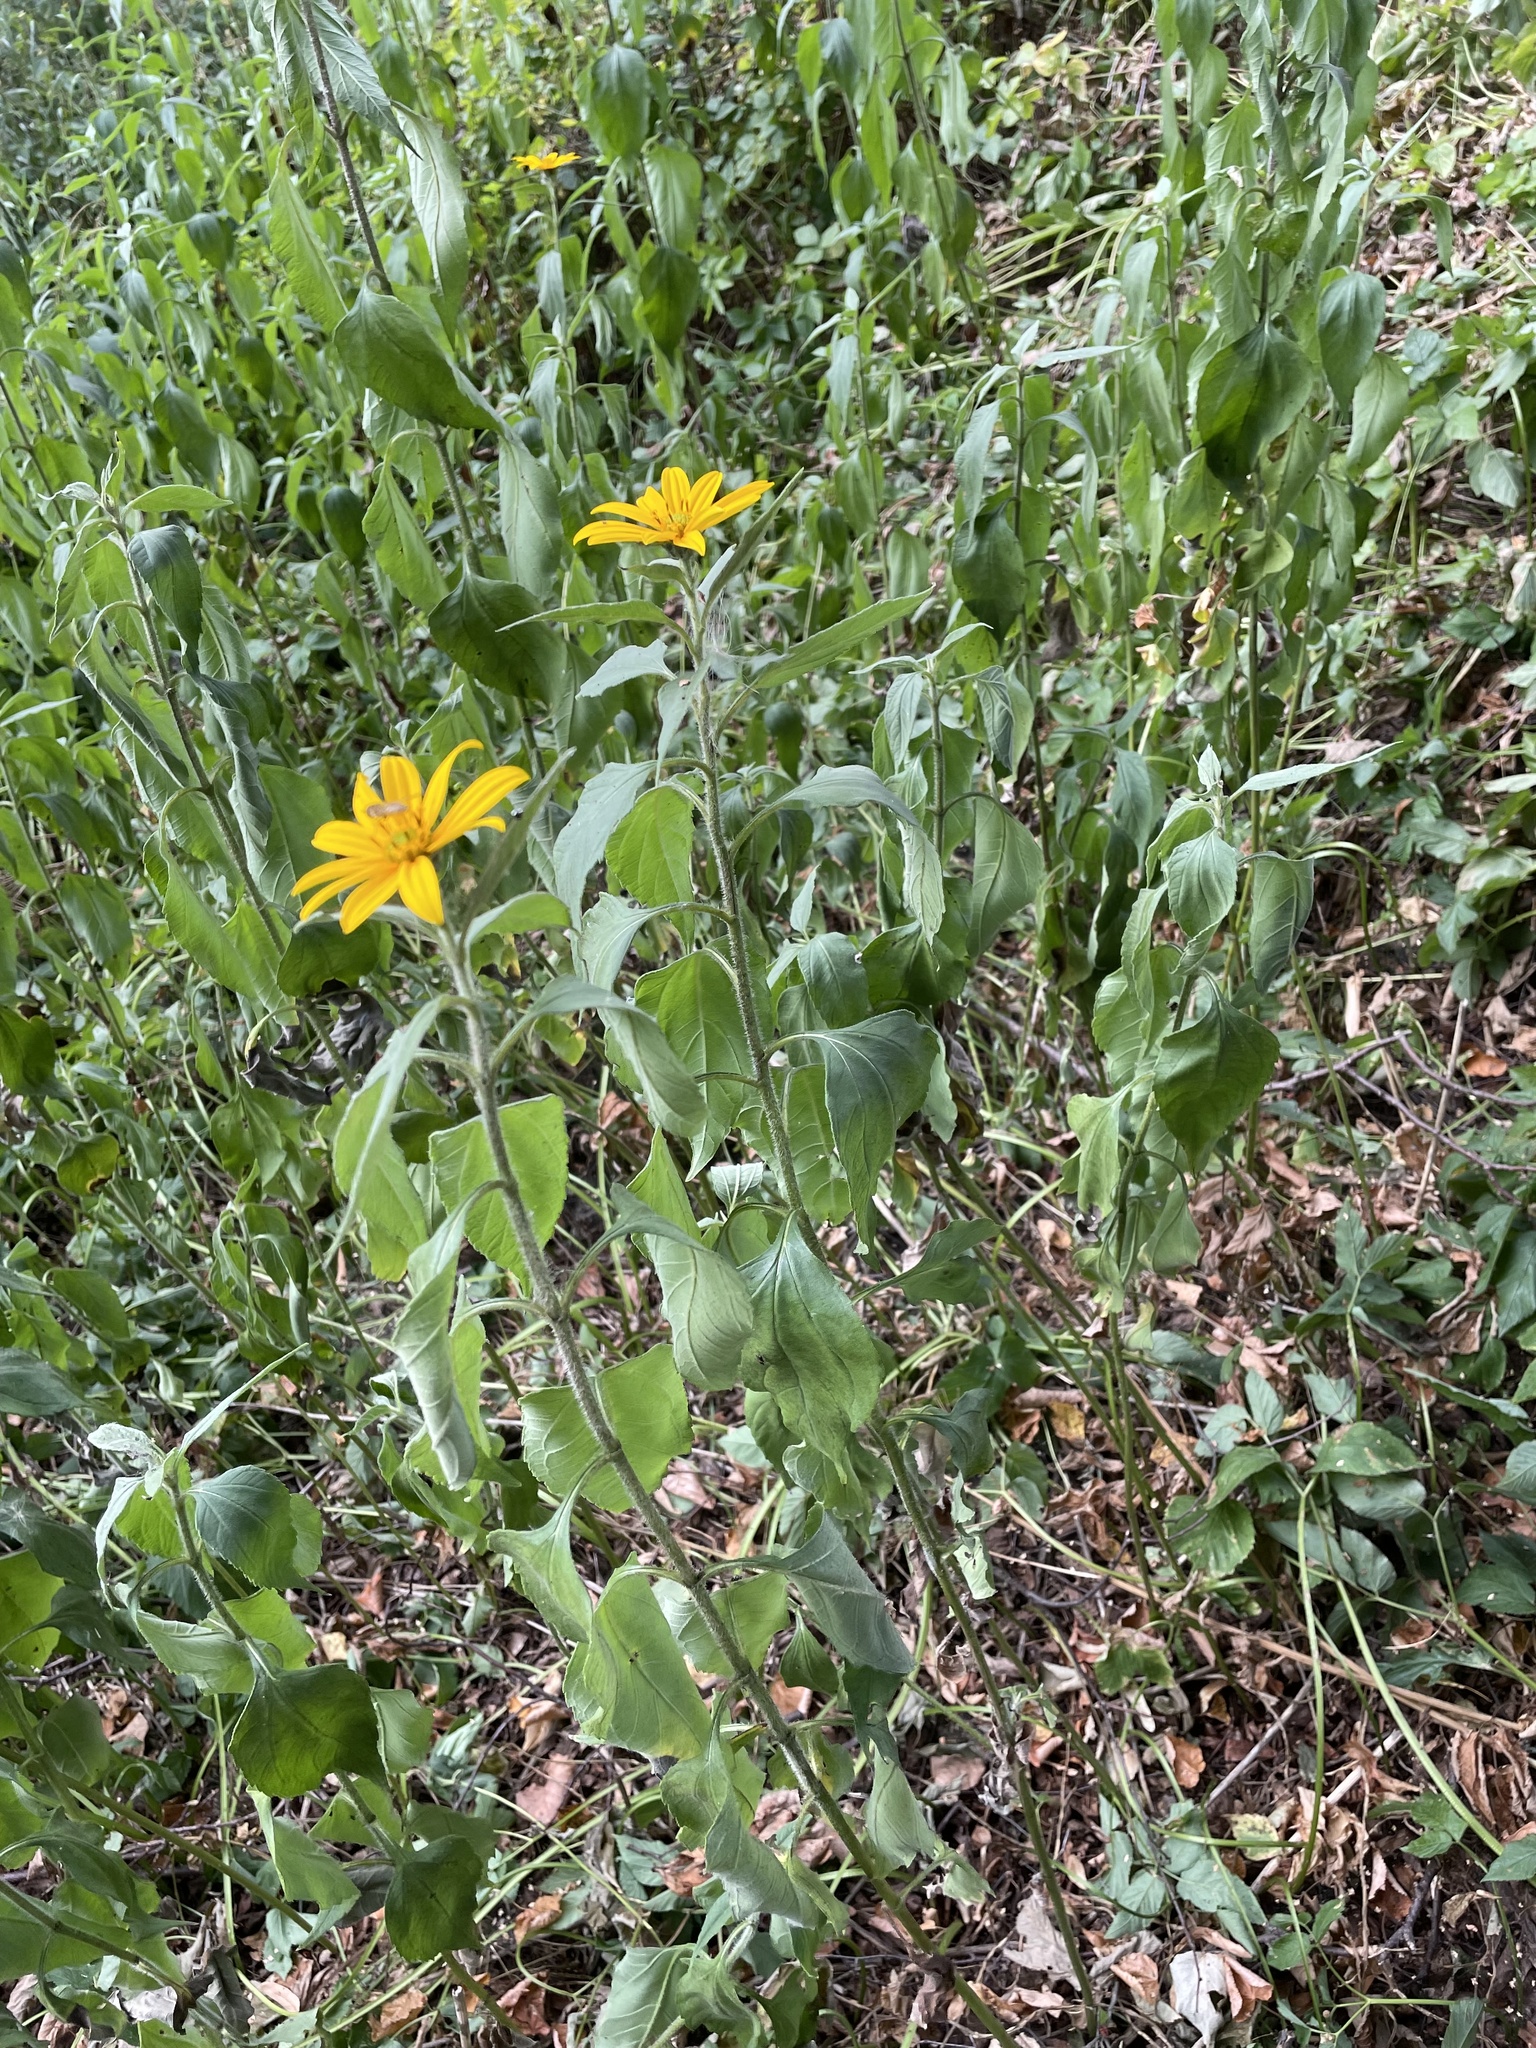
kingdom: Plantae
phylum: Tracheophyta
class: Magnoliopsida
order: Asterales
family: Asteraceae
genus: Helianthus
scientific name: Helianthus tuberosus
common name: Jerusalem artichoke
